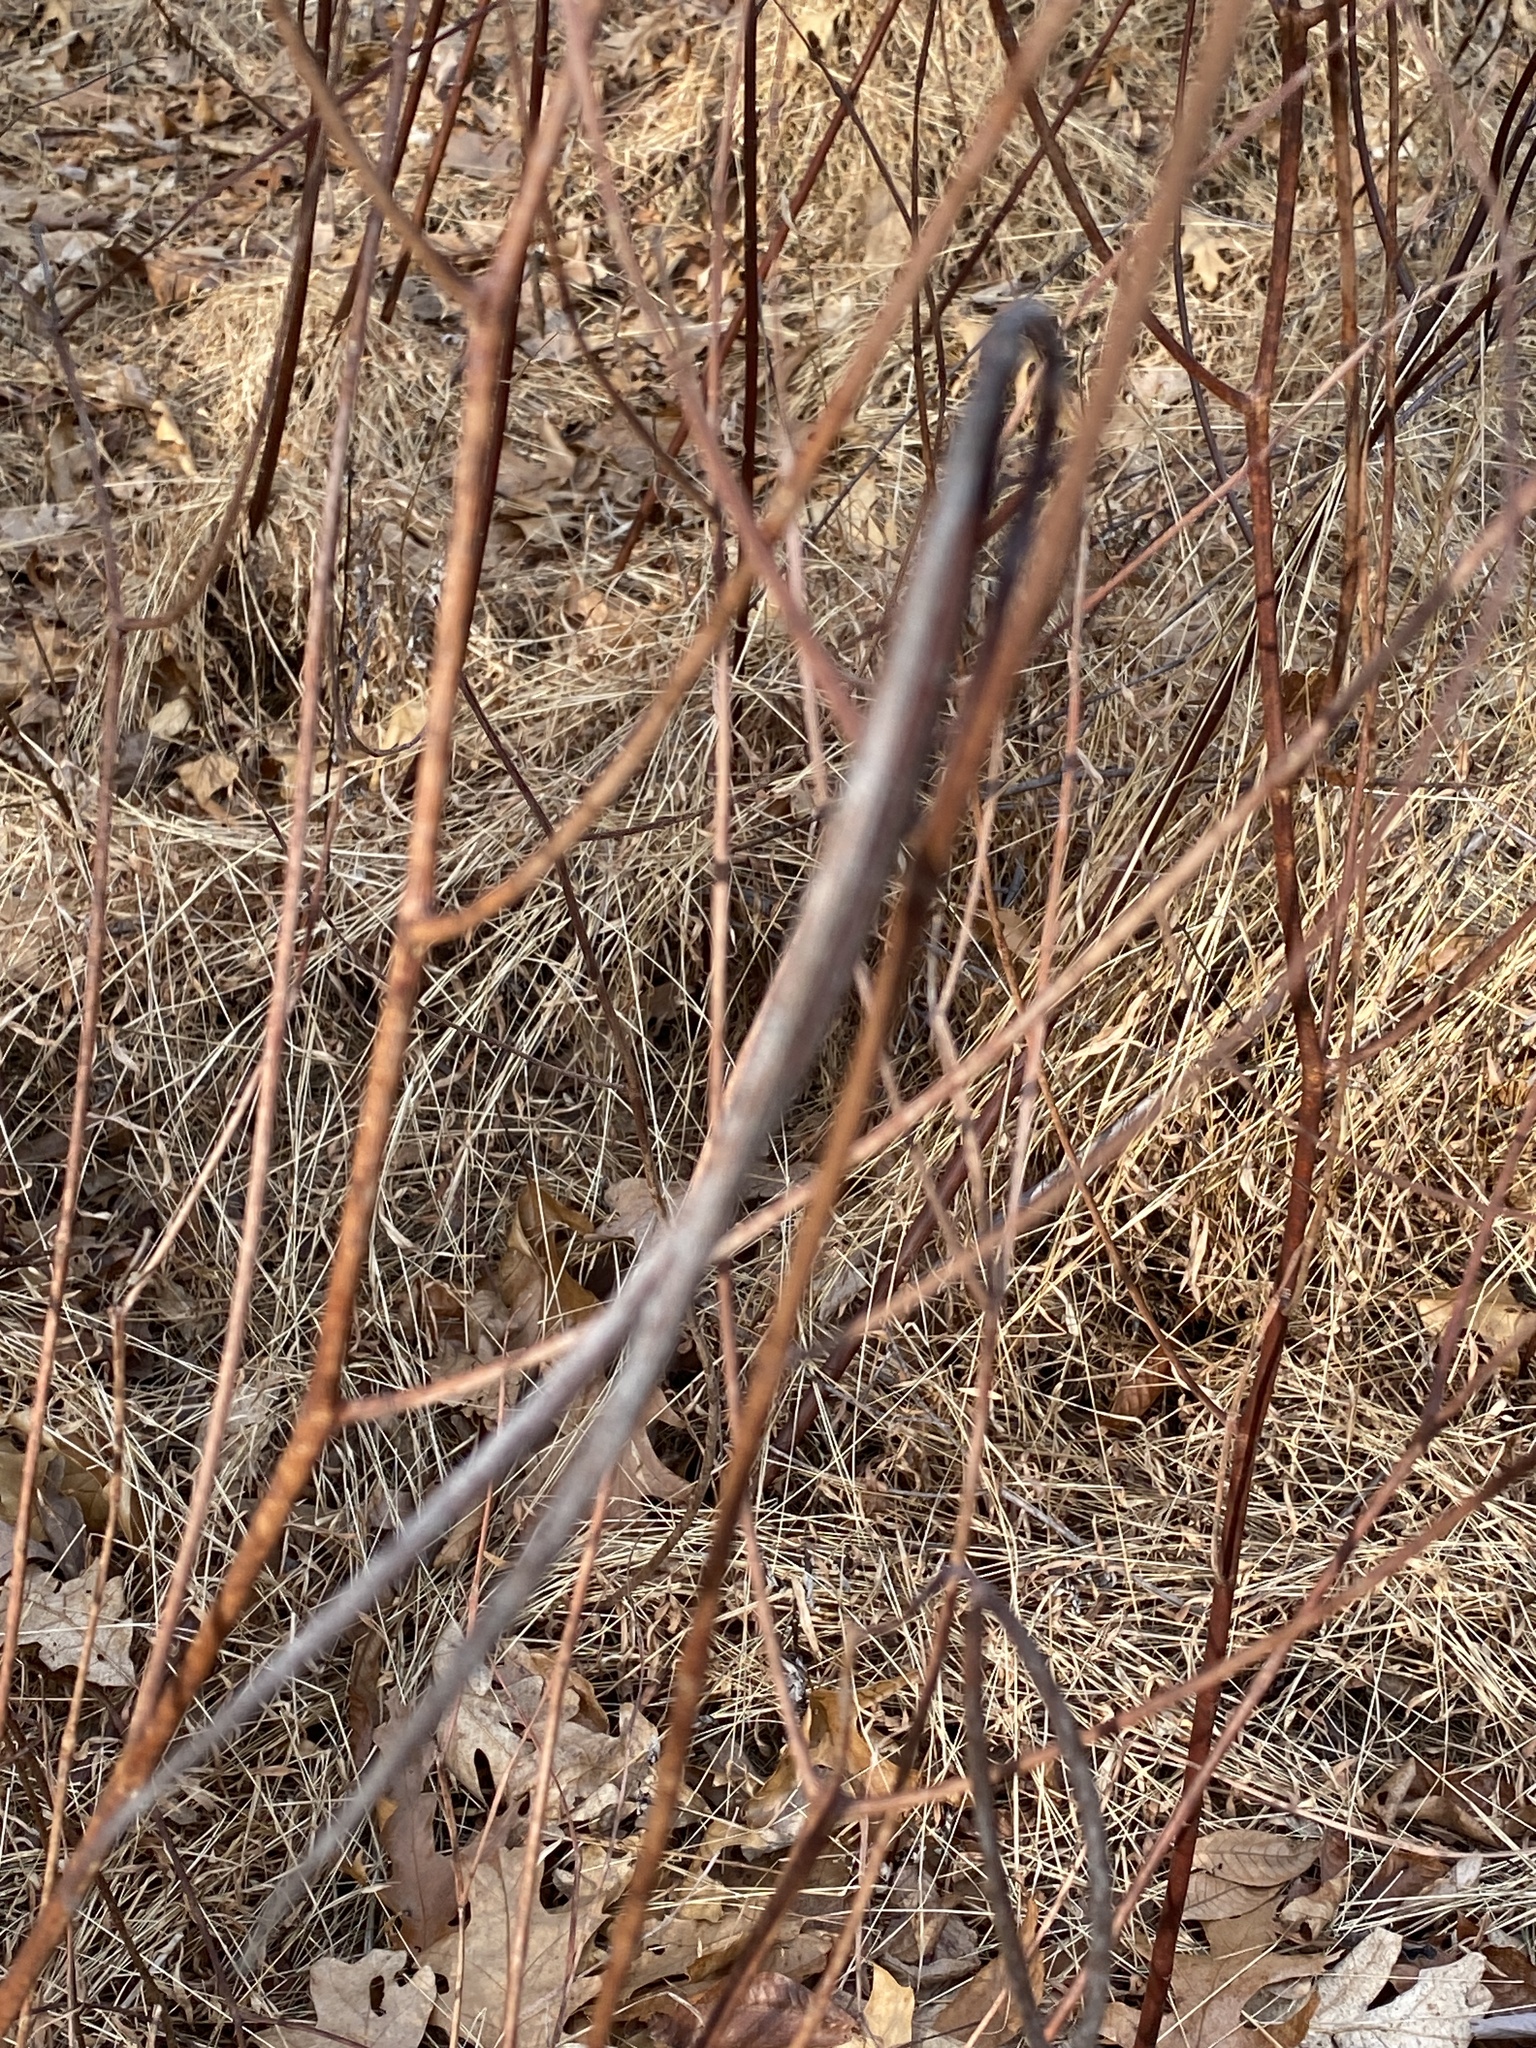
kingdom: Plantae
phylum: Tracheophyta
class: Magnoliopsida
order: Gentianales
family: Apocynaceae
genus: Apocynum
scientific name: Apocynum cannabinum
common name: Hemp dogbane
